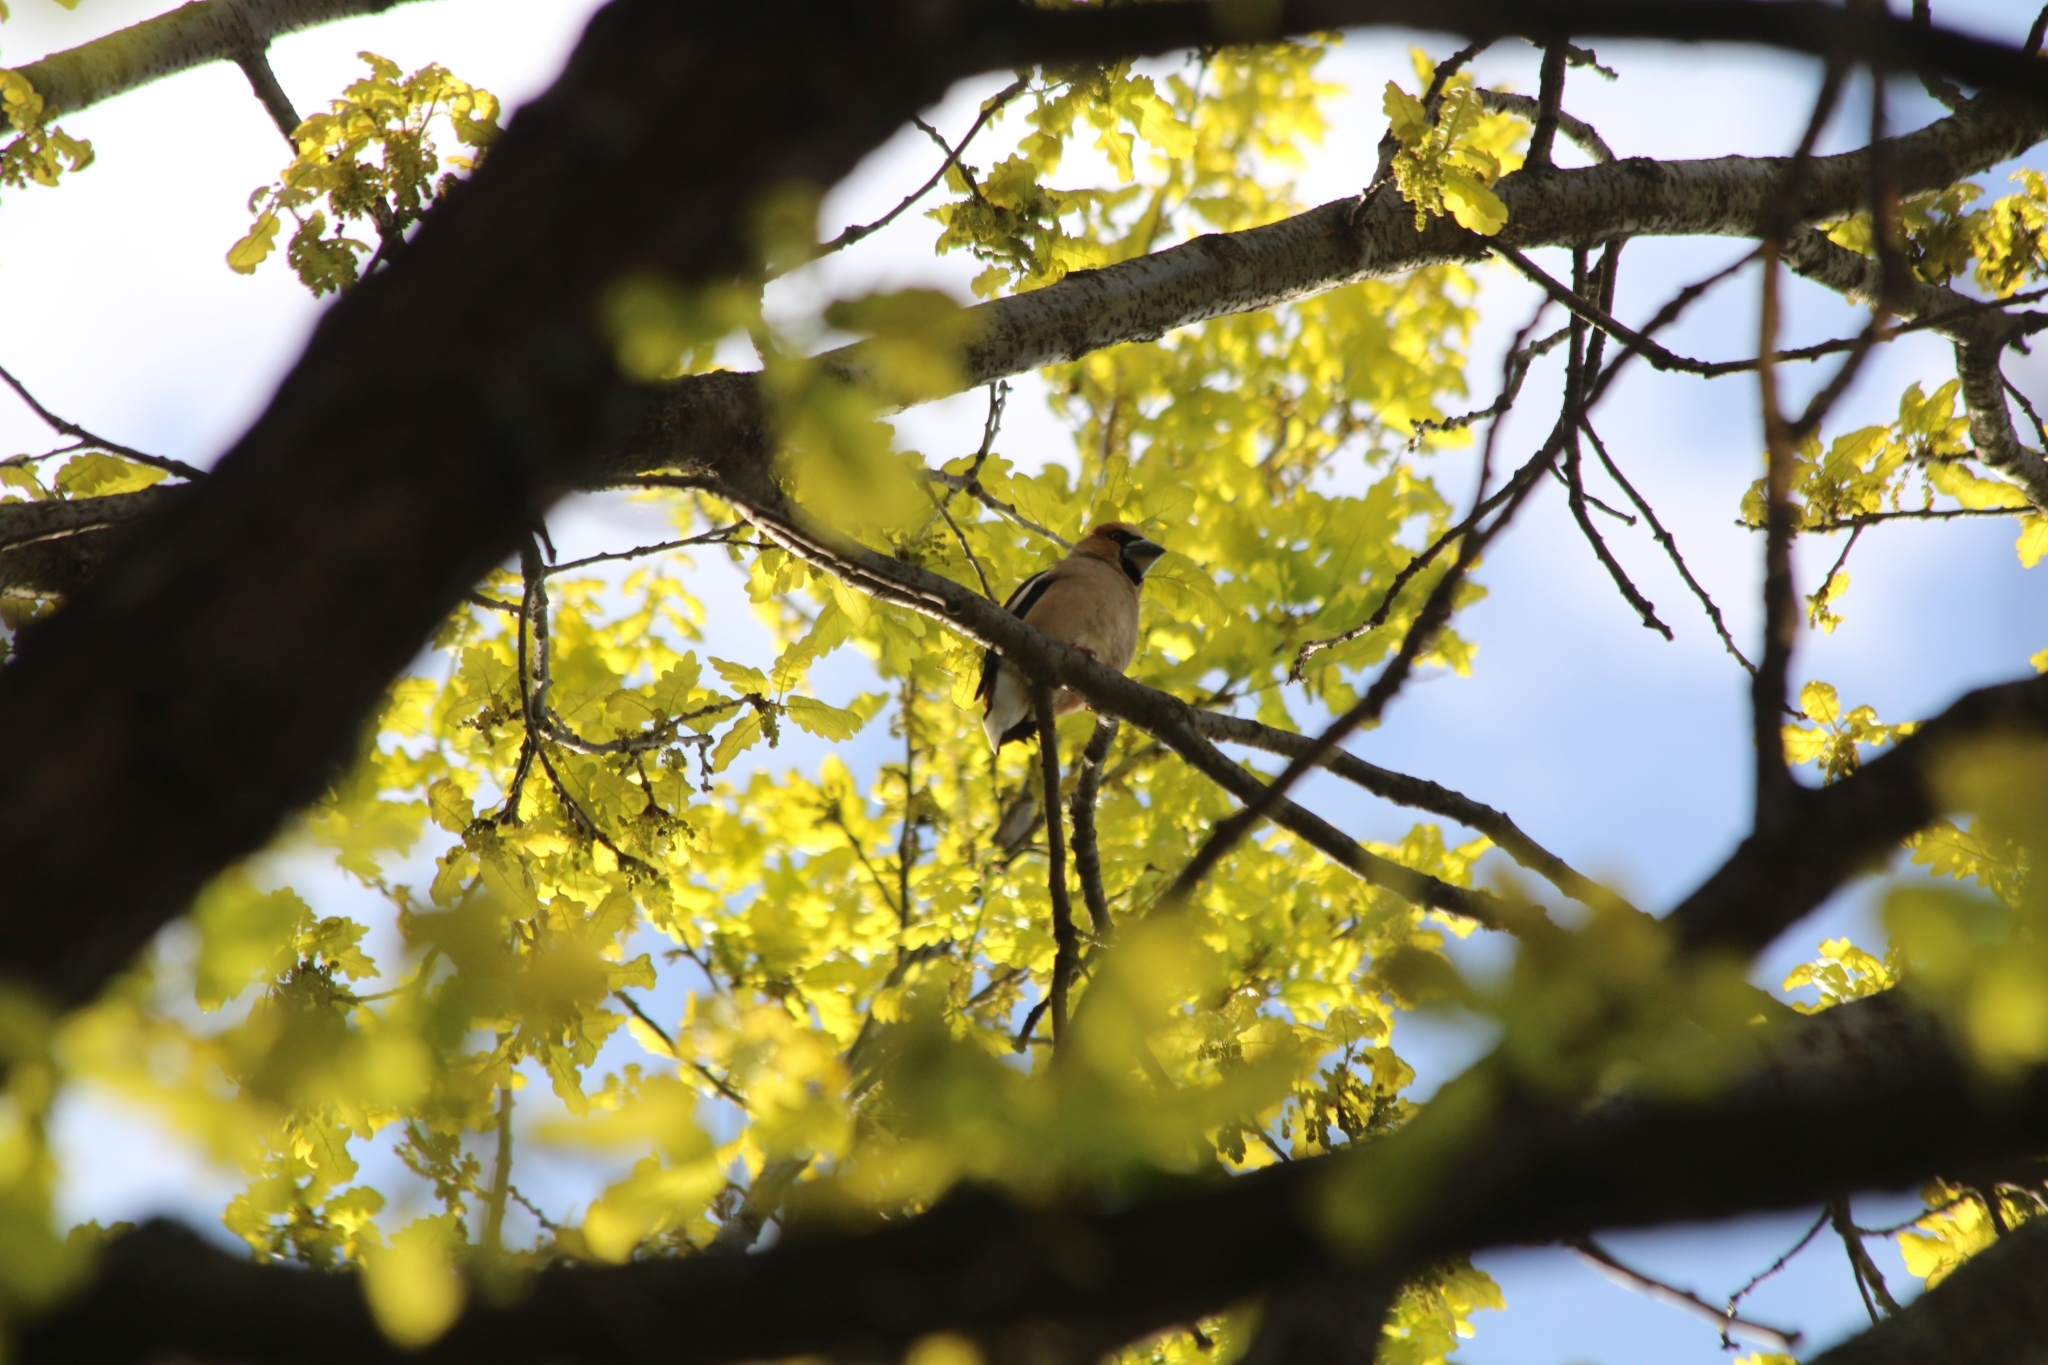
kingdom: Animalia
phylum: Chordata
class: Aves
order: Passeriformes
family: Fringillidae
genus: Coccothraustes
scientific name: Coccothraustes coccothraustes
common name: Hawfinch
